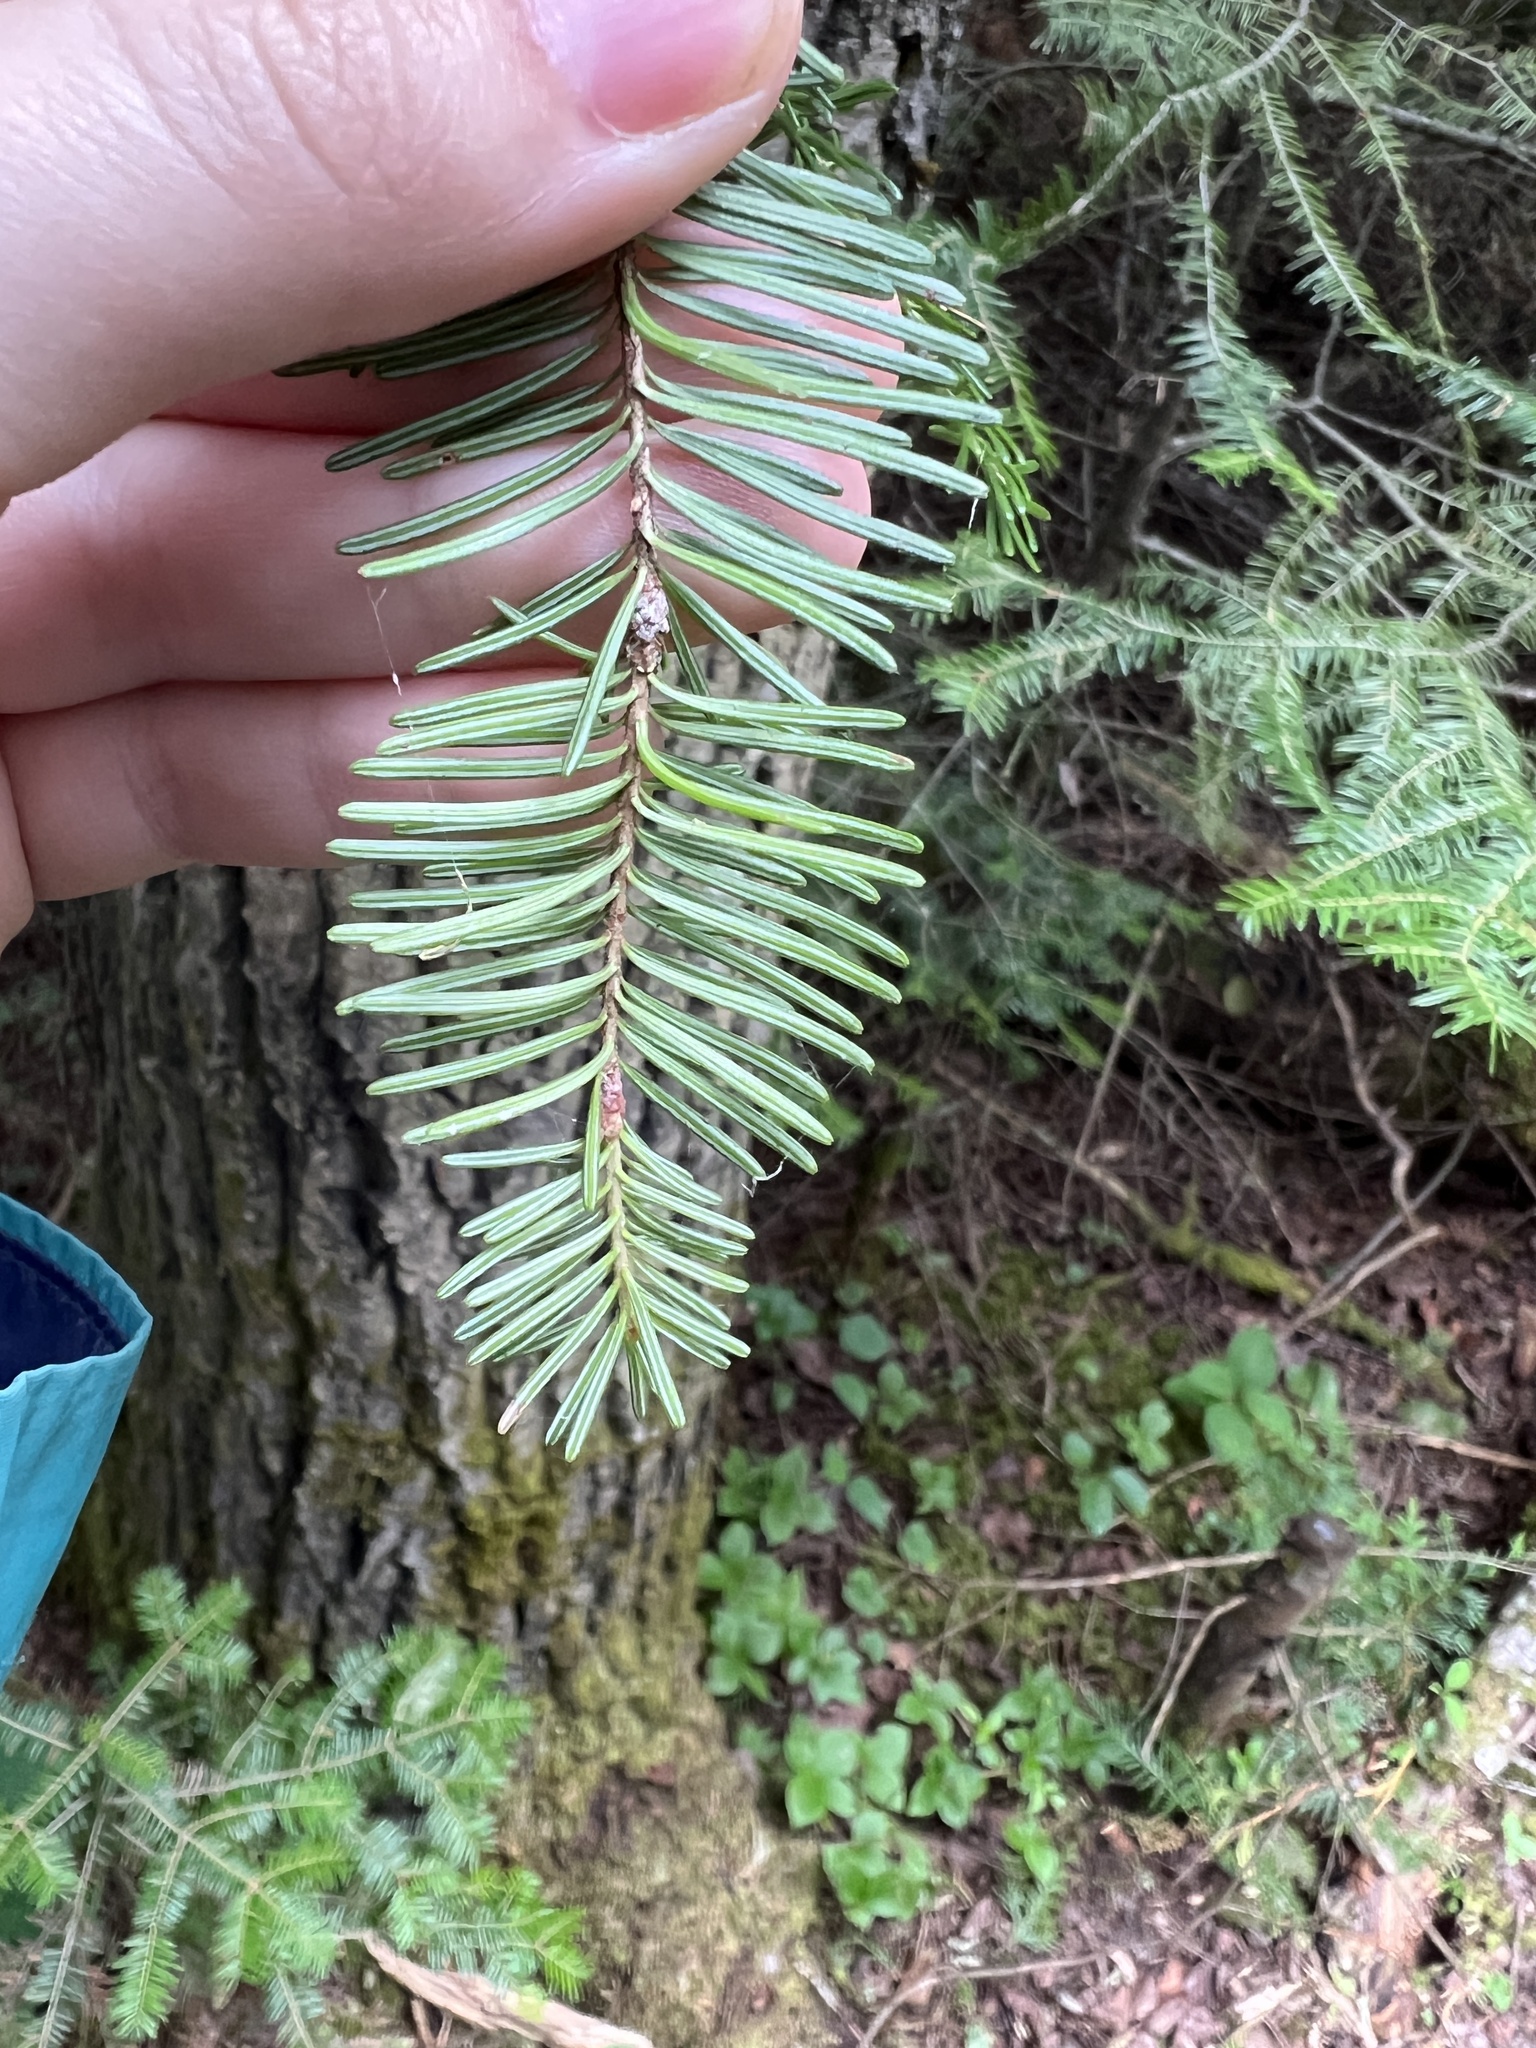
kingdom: Plantae
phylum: Tracheophyta
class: Pinopsida
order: Pinales
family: Pinaceae
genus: Abies
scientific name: Abies balsamea
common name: Balsam fir
